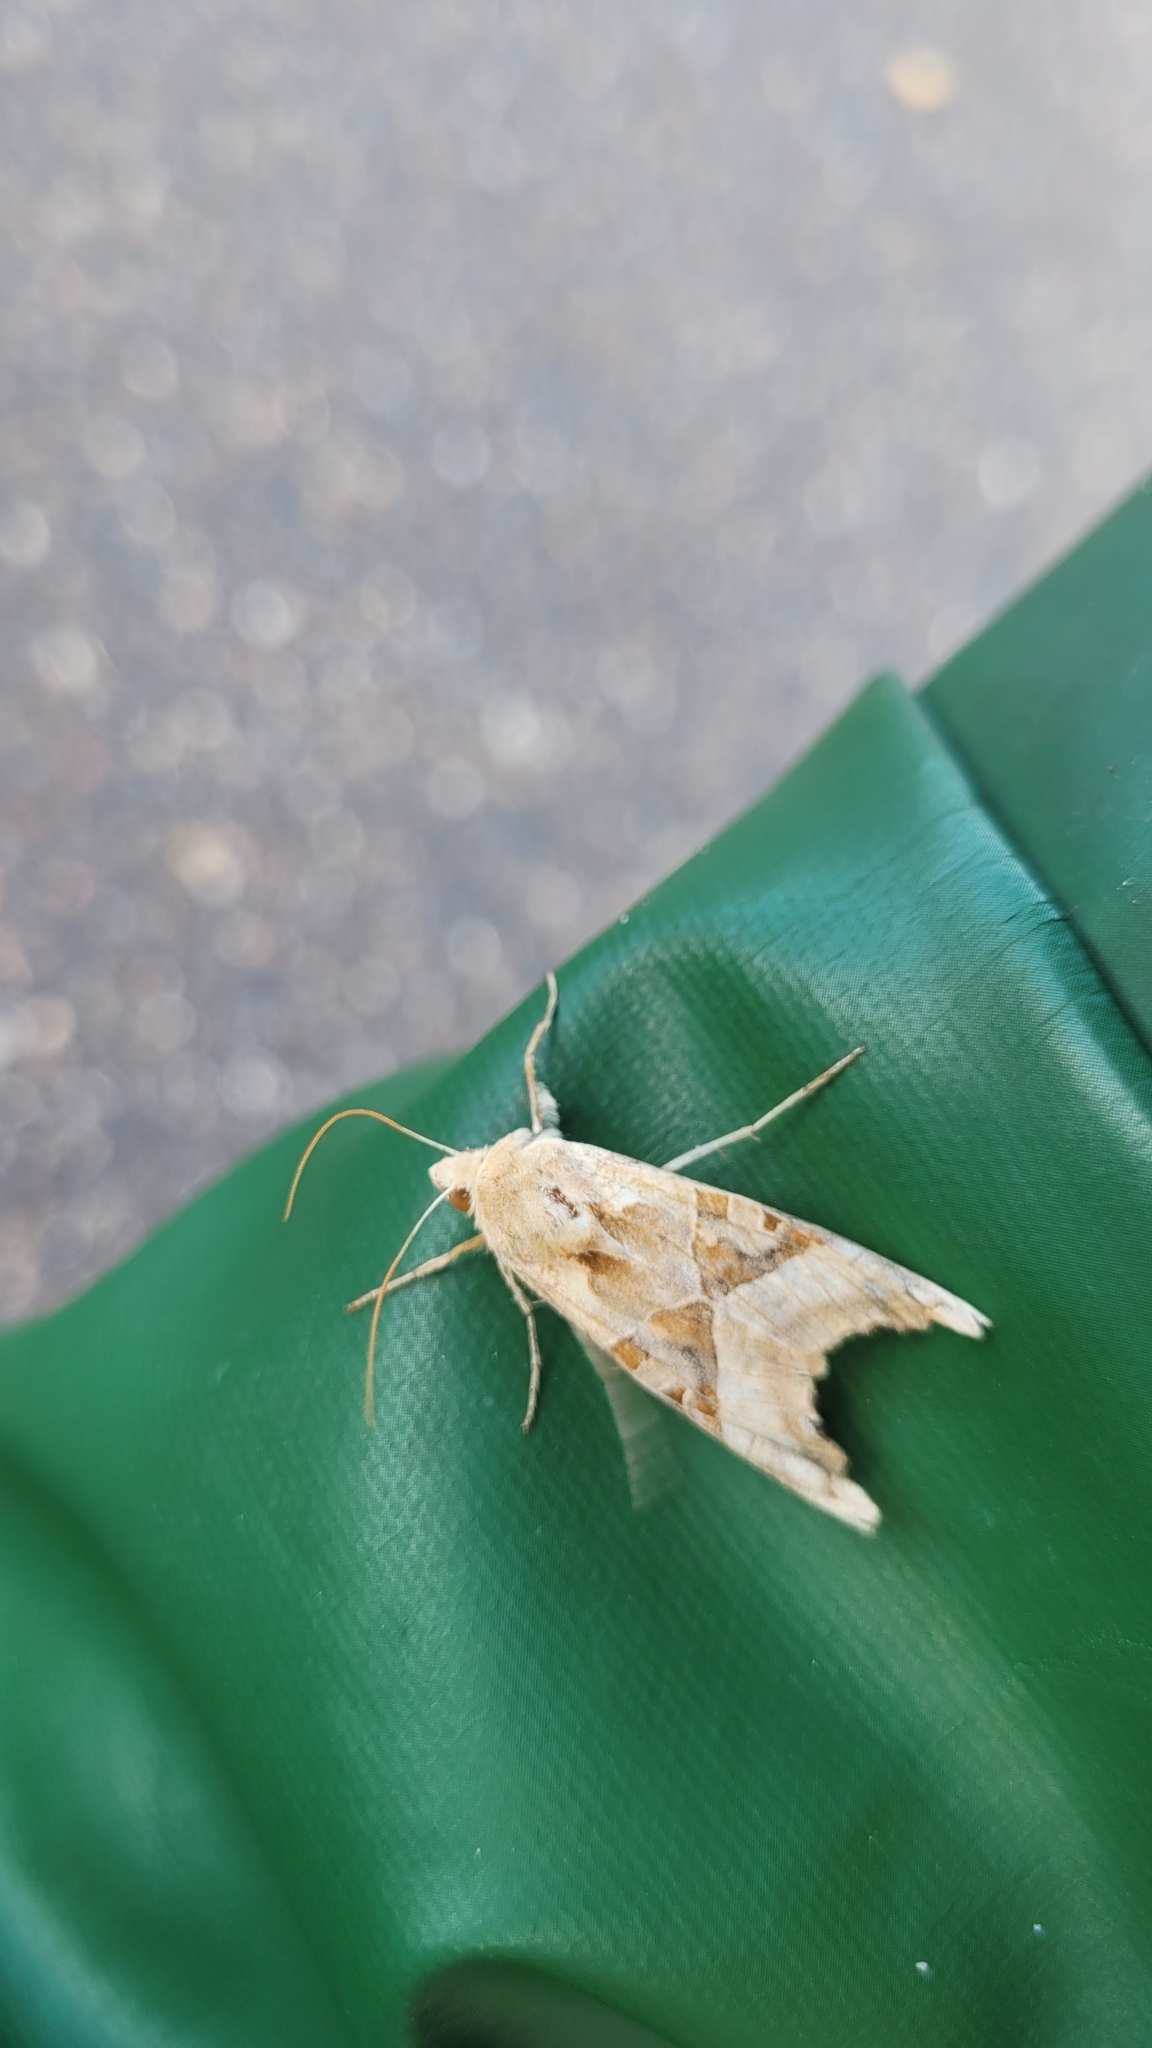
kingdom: Animalia
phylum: Arthropoda
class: Insecta
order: Lepidoptera
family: Noctuidae
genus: Phlogophora
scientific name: Phlogophora meticulosa
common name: Angle shades
